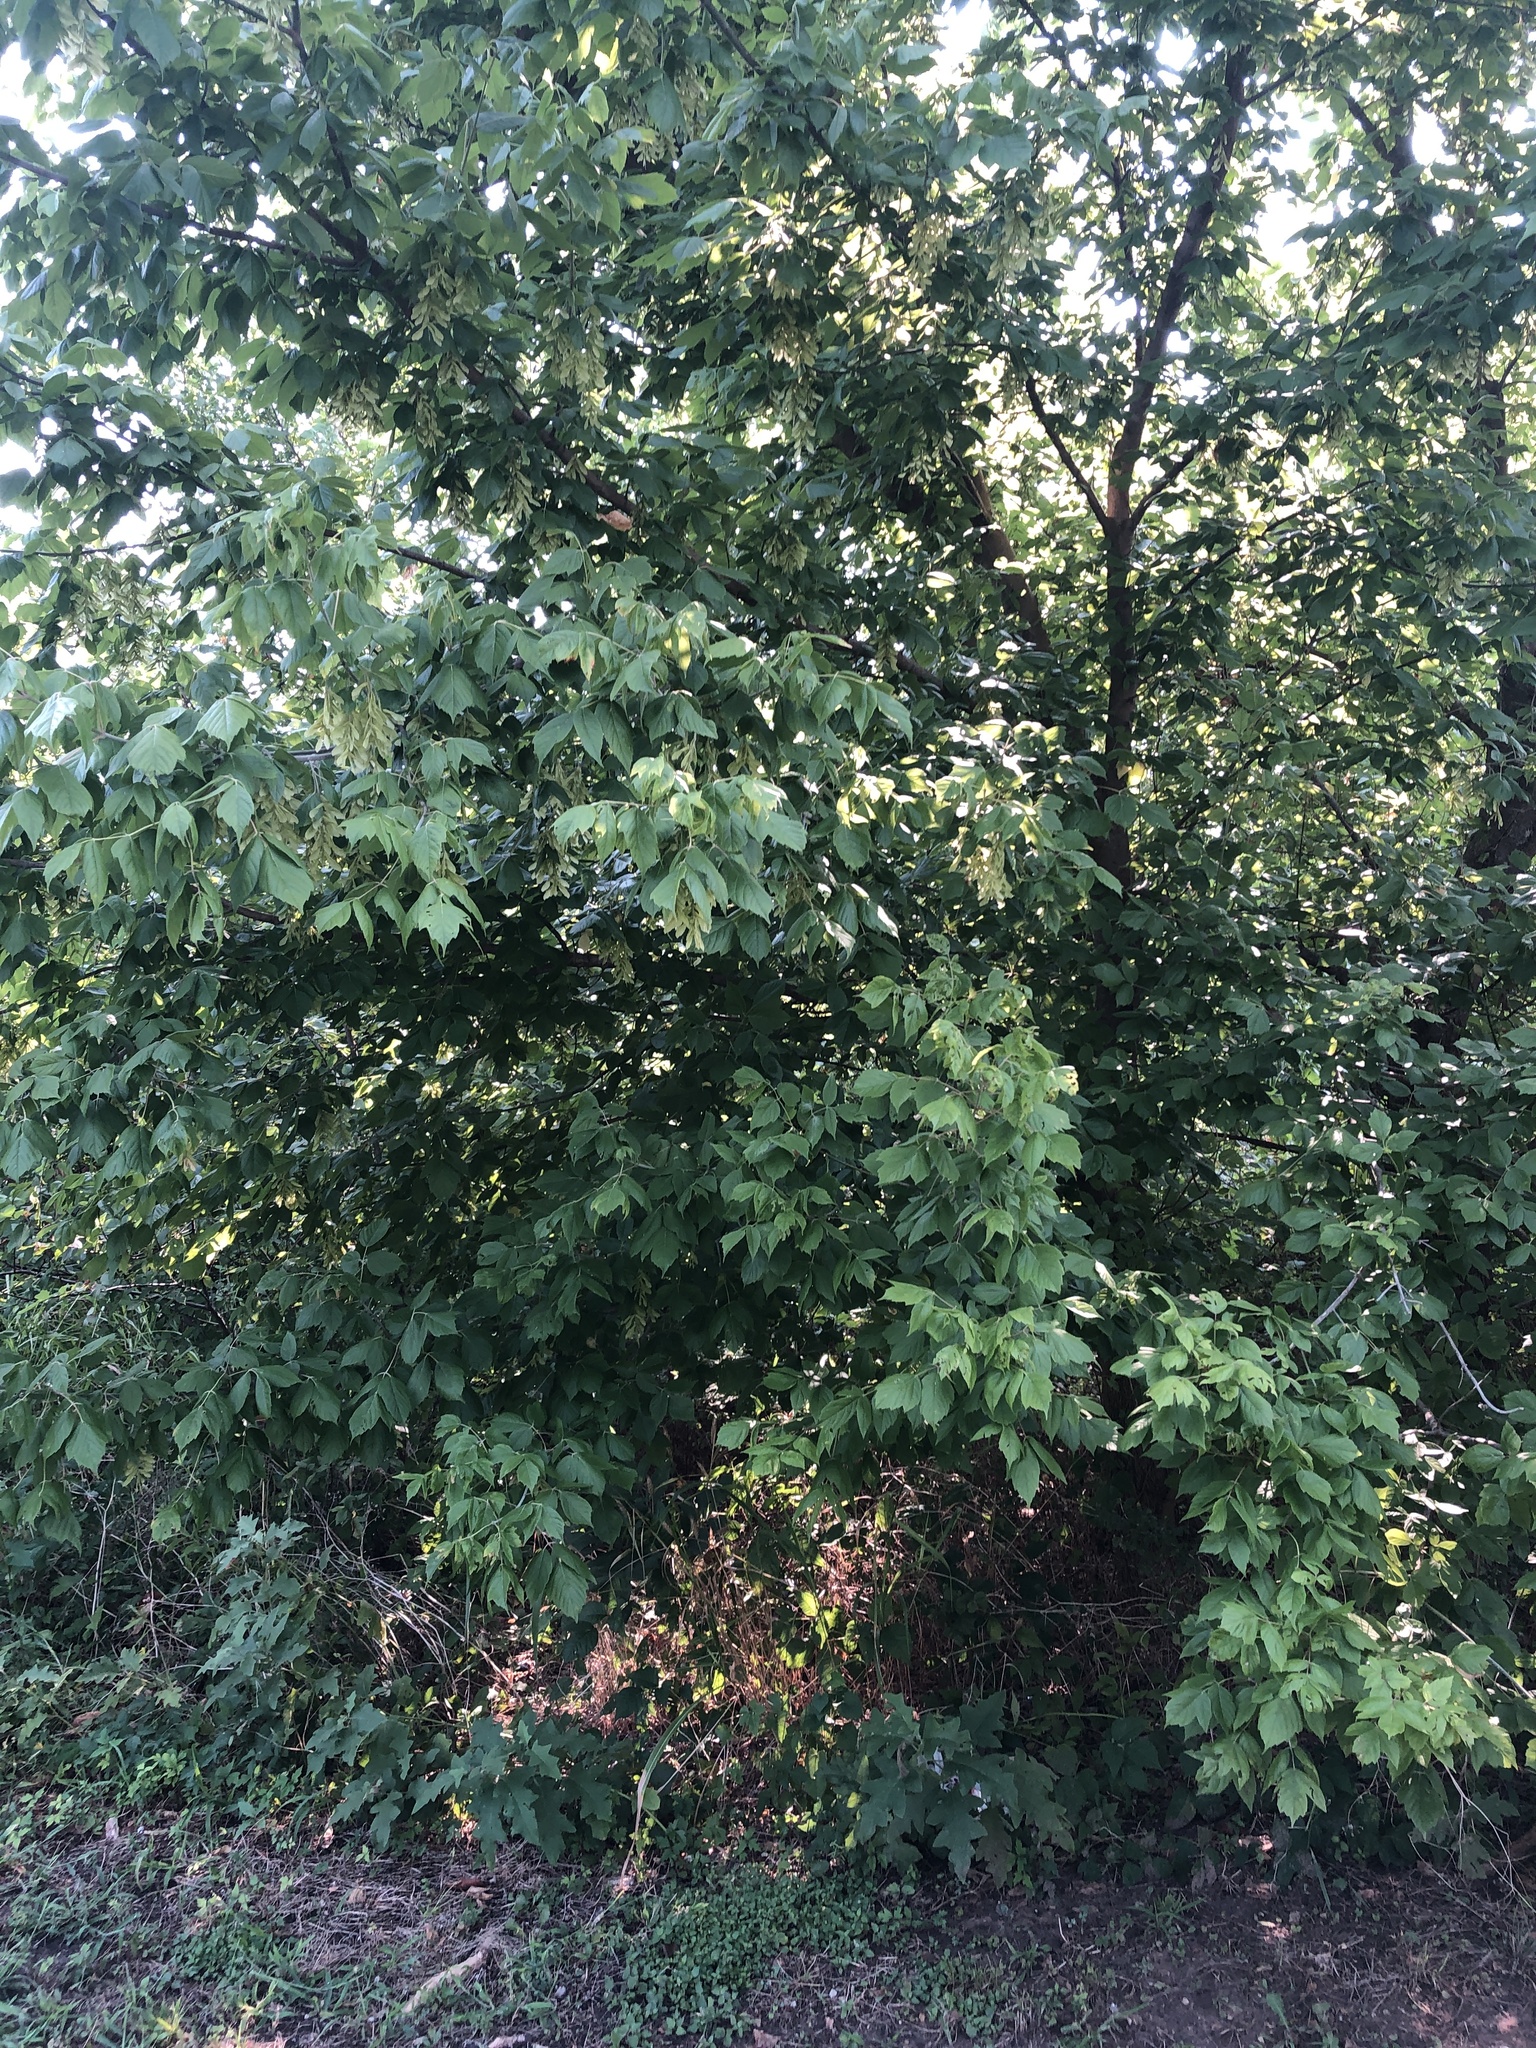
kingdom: Plantae
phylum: Tracheophyta
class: Magnoliopsida
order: Sapindales
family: Sapindaceae
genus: Acer
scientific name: Acer negundo
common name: Ashleaf maple
